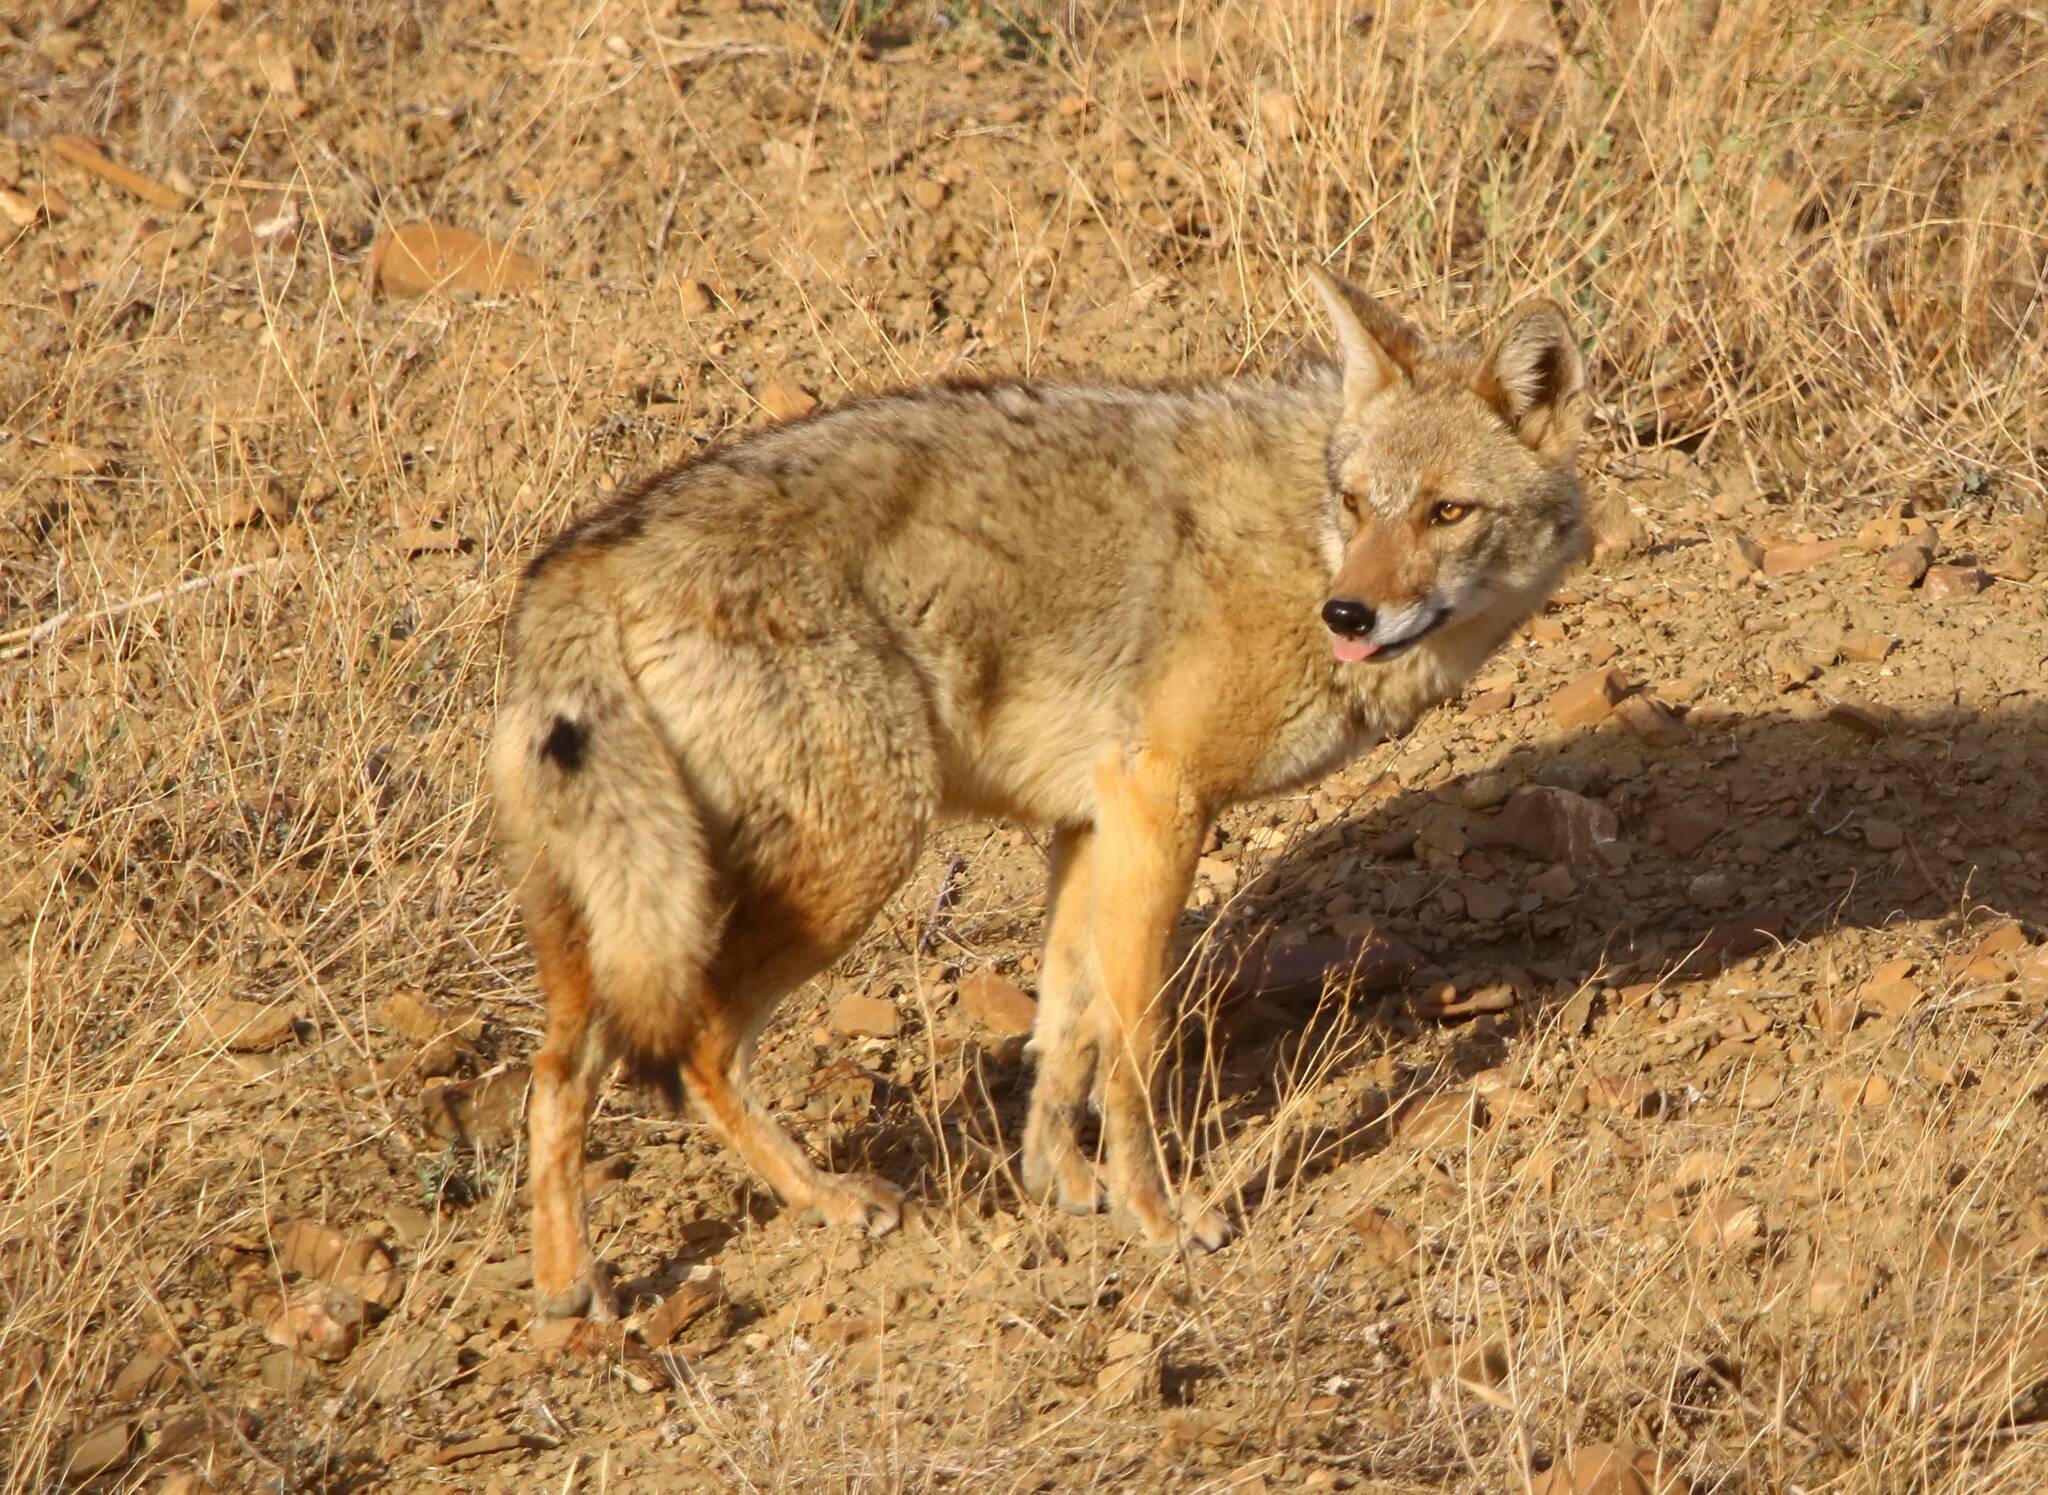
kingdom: Animalia
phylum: Chordata
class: Mammalia
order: Carnivora
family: Canidae
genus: Canis
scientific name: Canis lupaster
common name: African golden wolf
